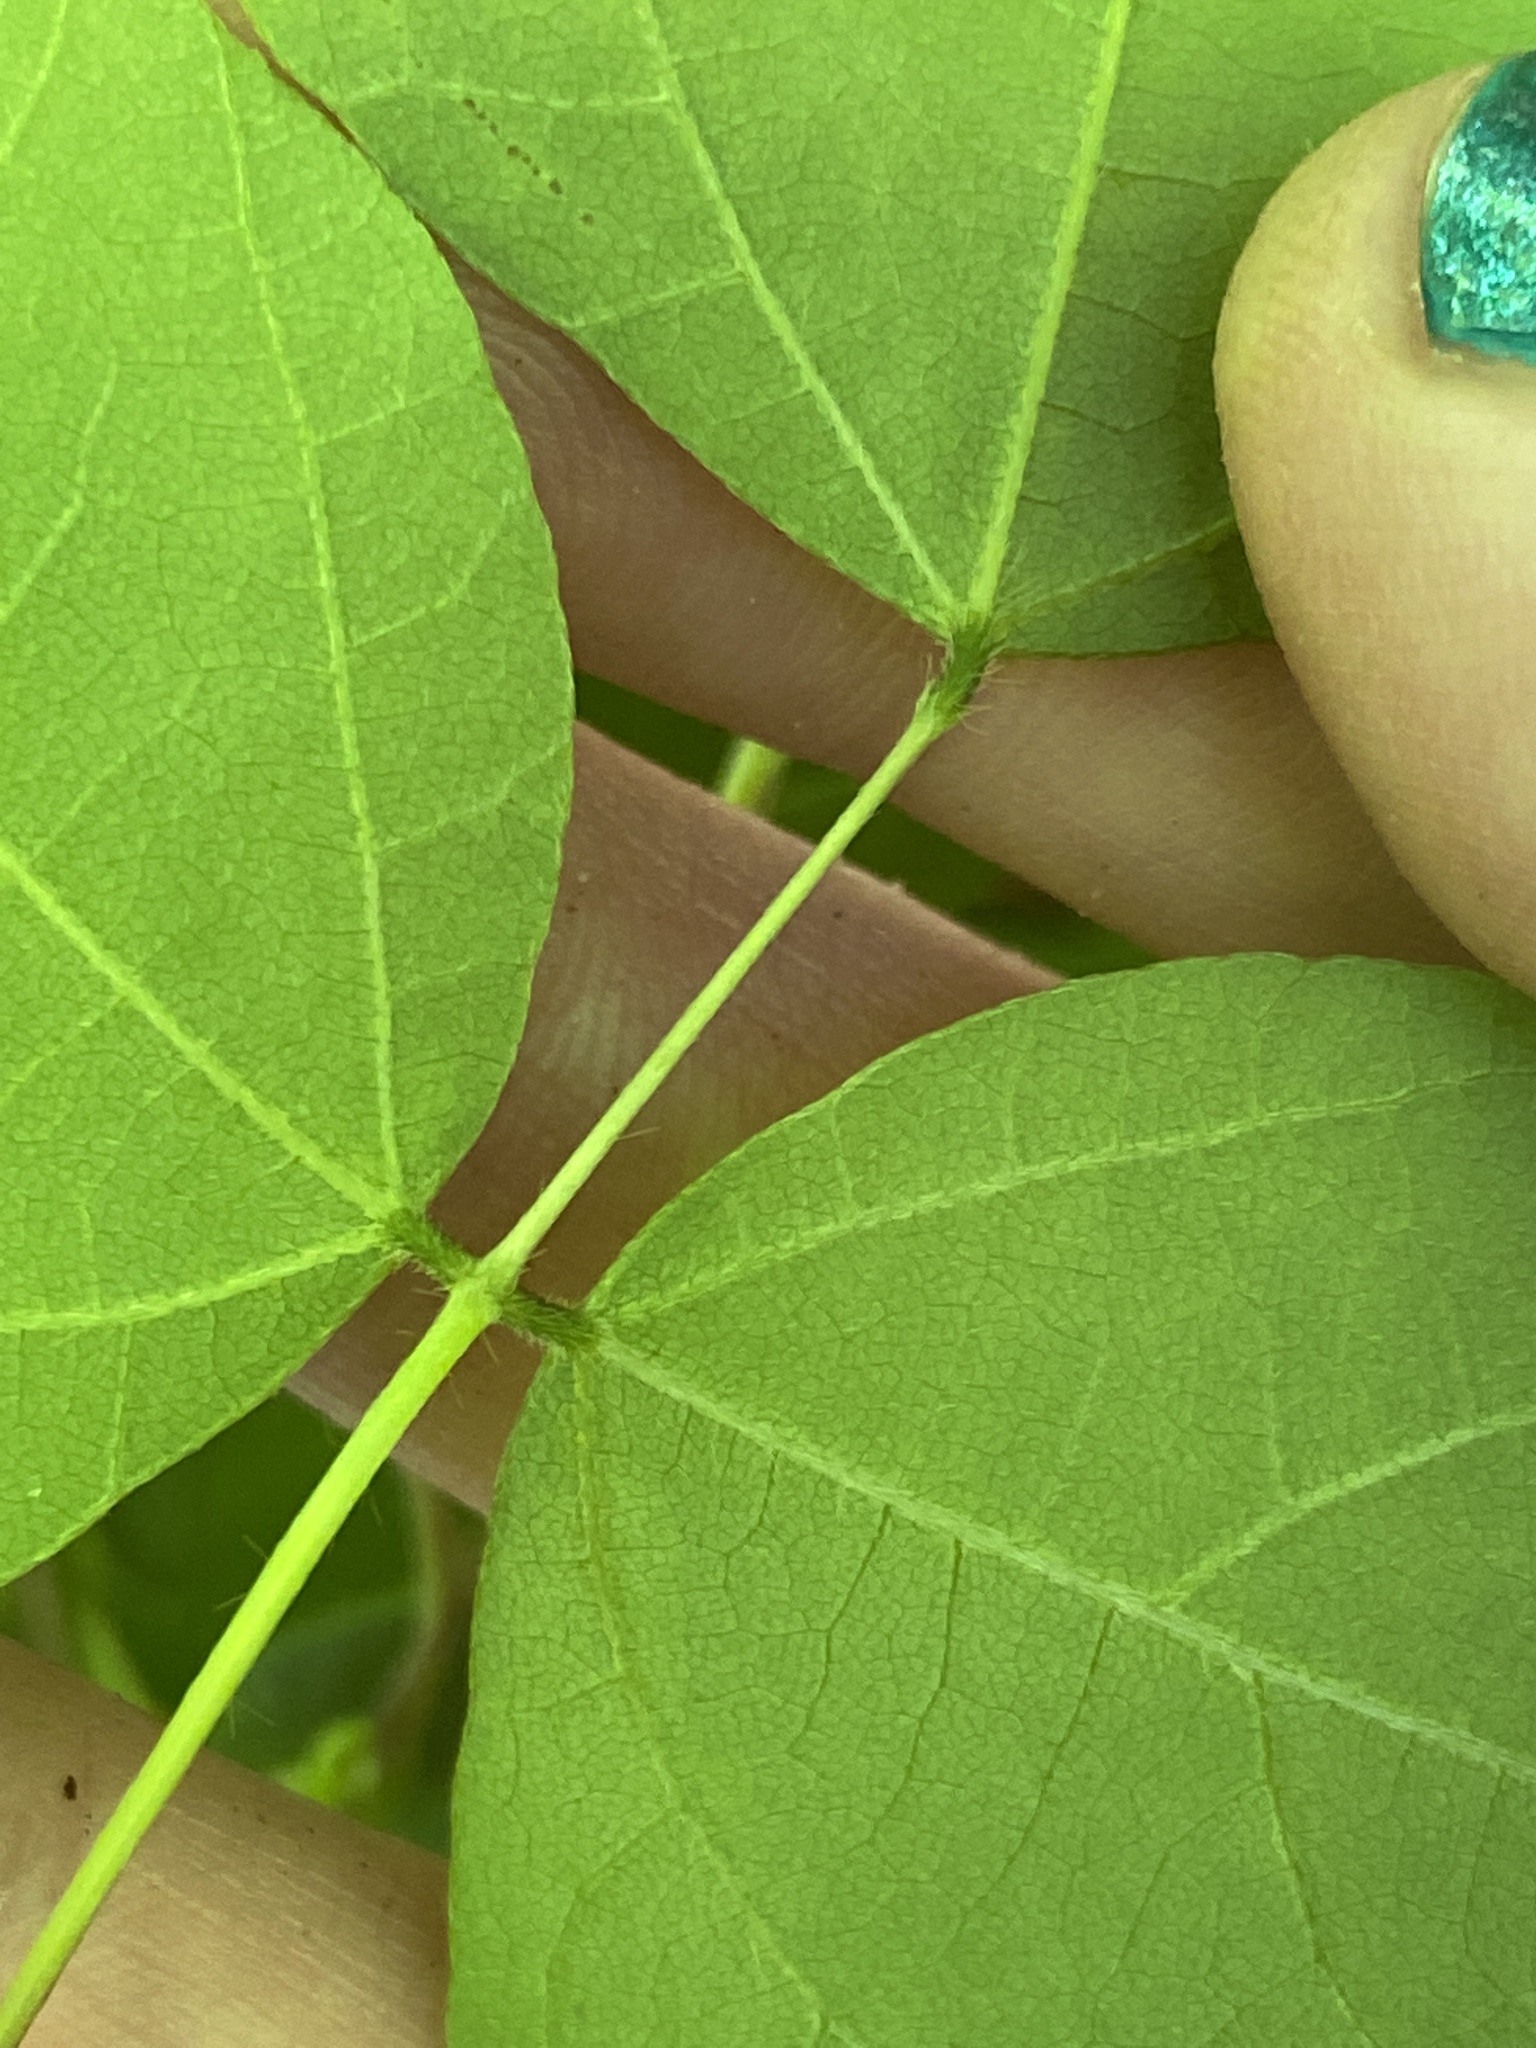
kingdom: Plantae
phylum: Tracheophyta
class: Magnoliopsida
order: Fabales
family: Fabaceae
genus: Amphicarpaea
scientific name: Amphicarpaea bracteata
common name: American hog peanut
